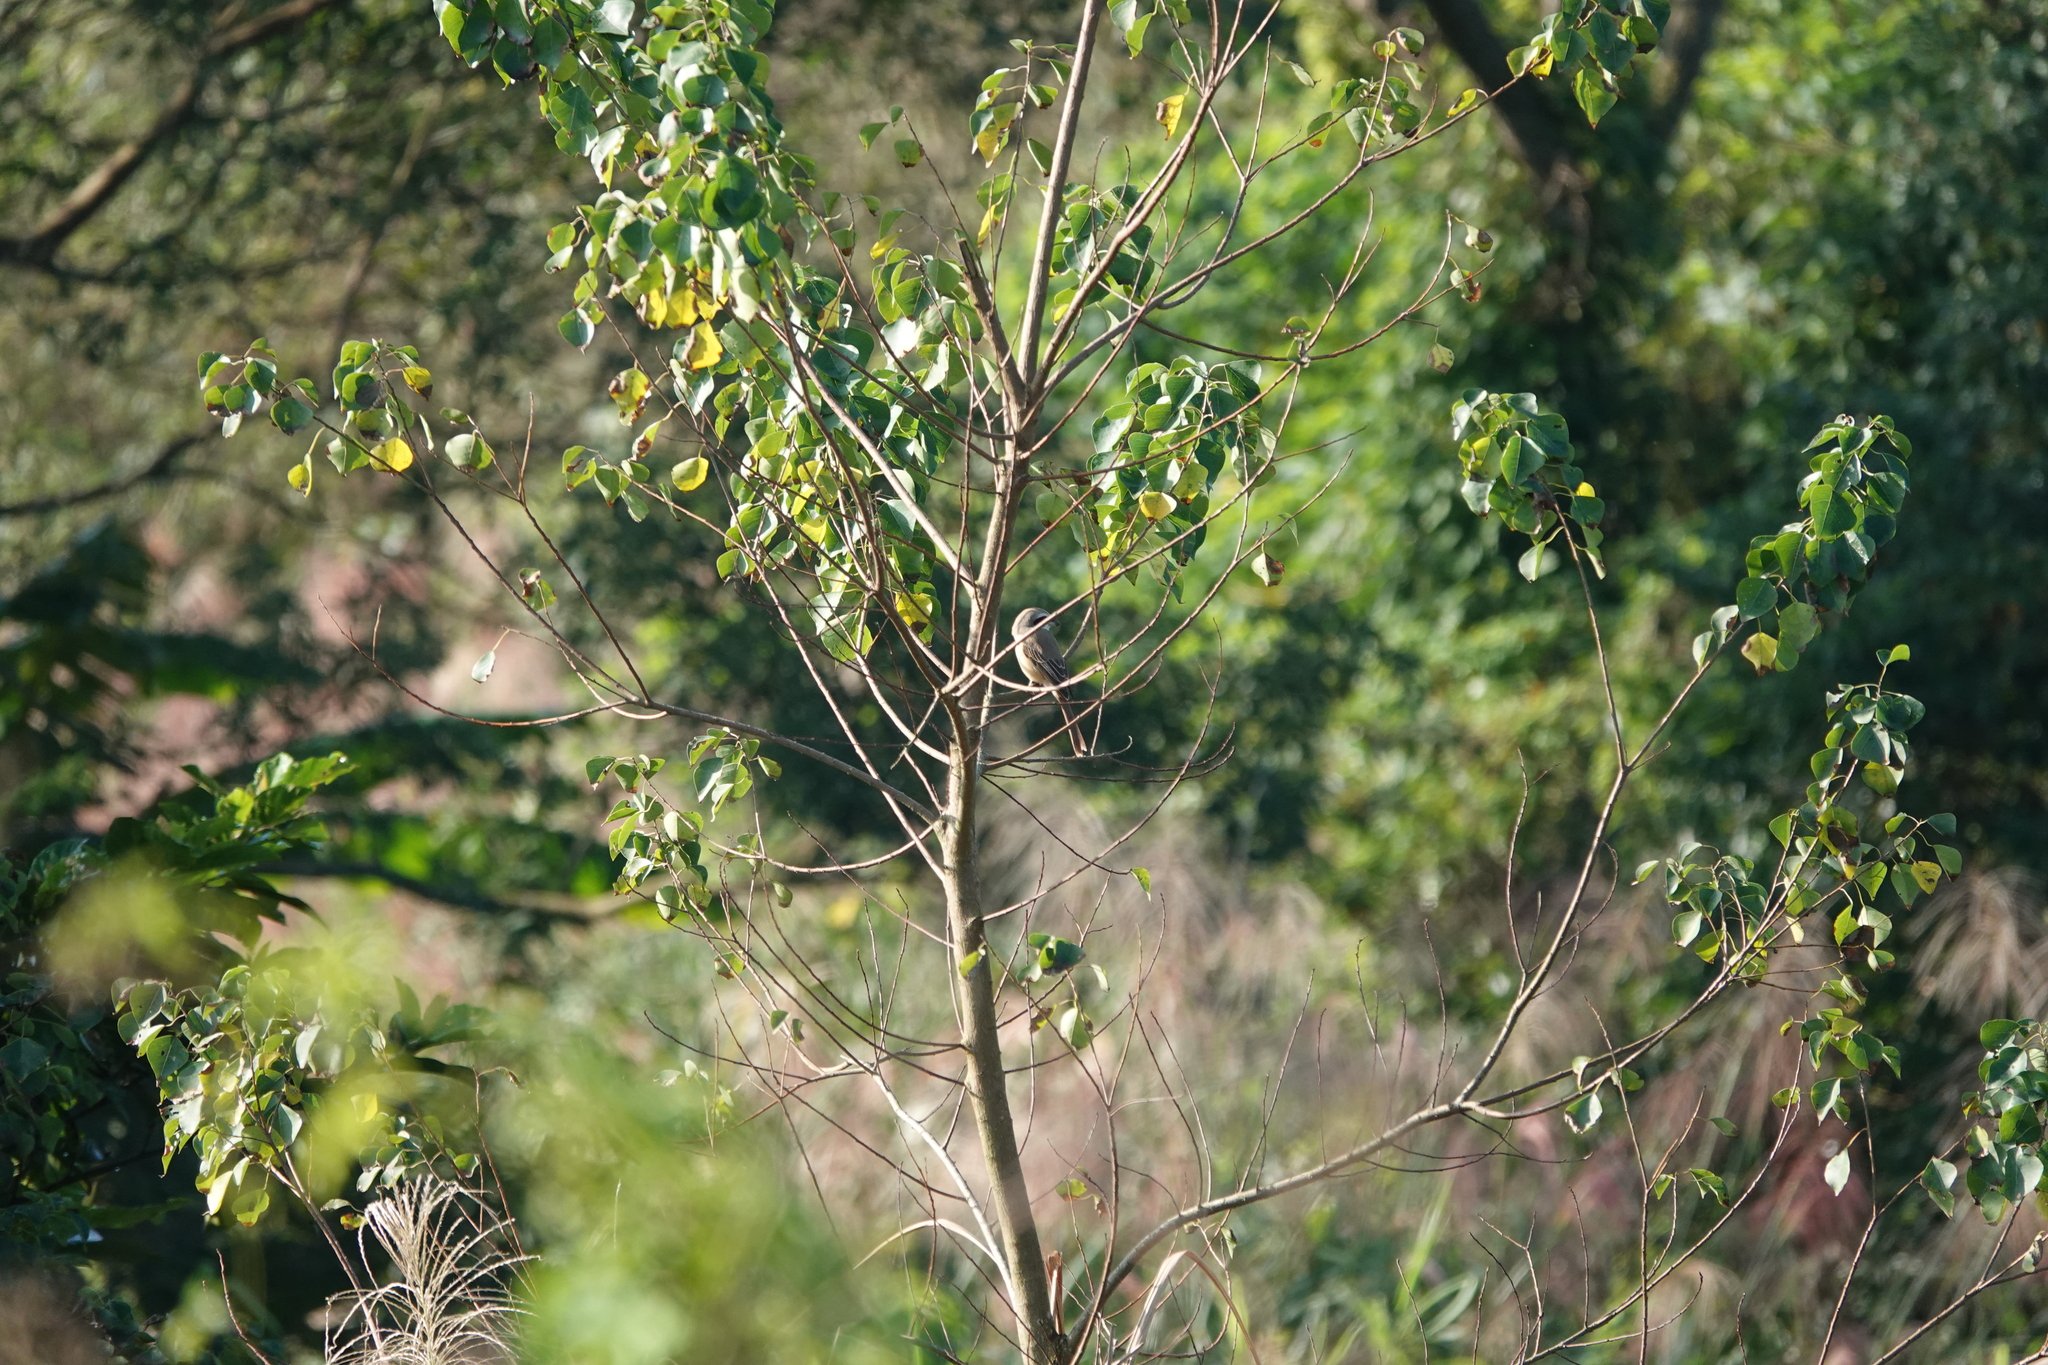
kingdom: Animalia
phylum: Chordata
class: Aves
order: Passeriformes
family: Laniidae
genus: Lanius
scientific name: Lanius cristatus
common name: Brown shrike
